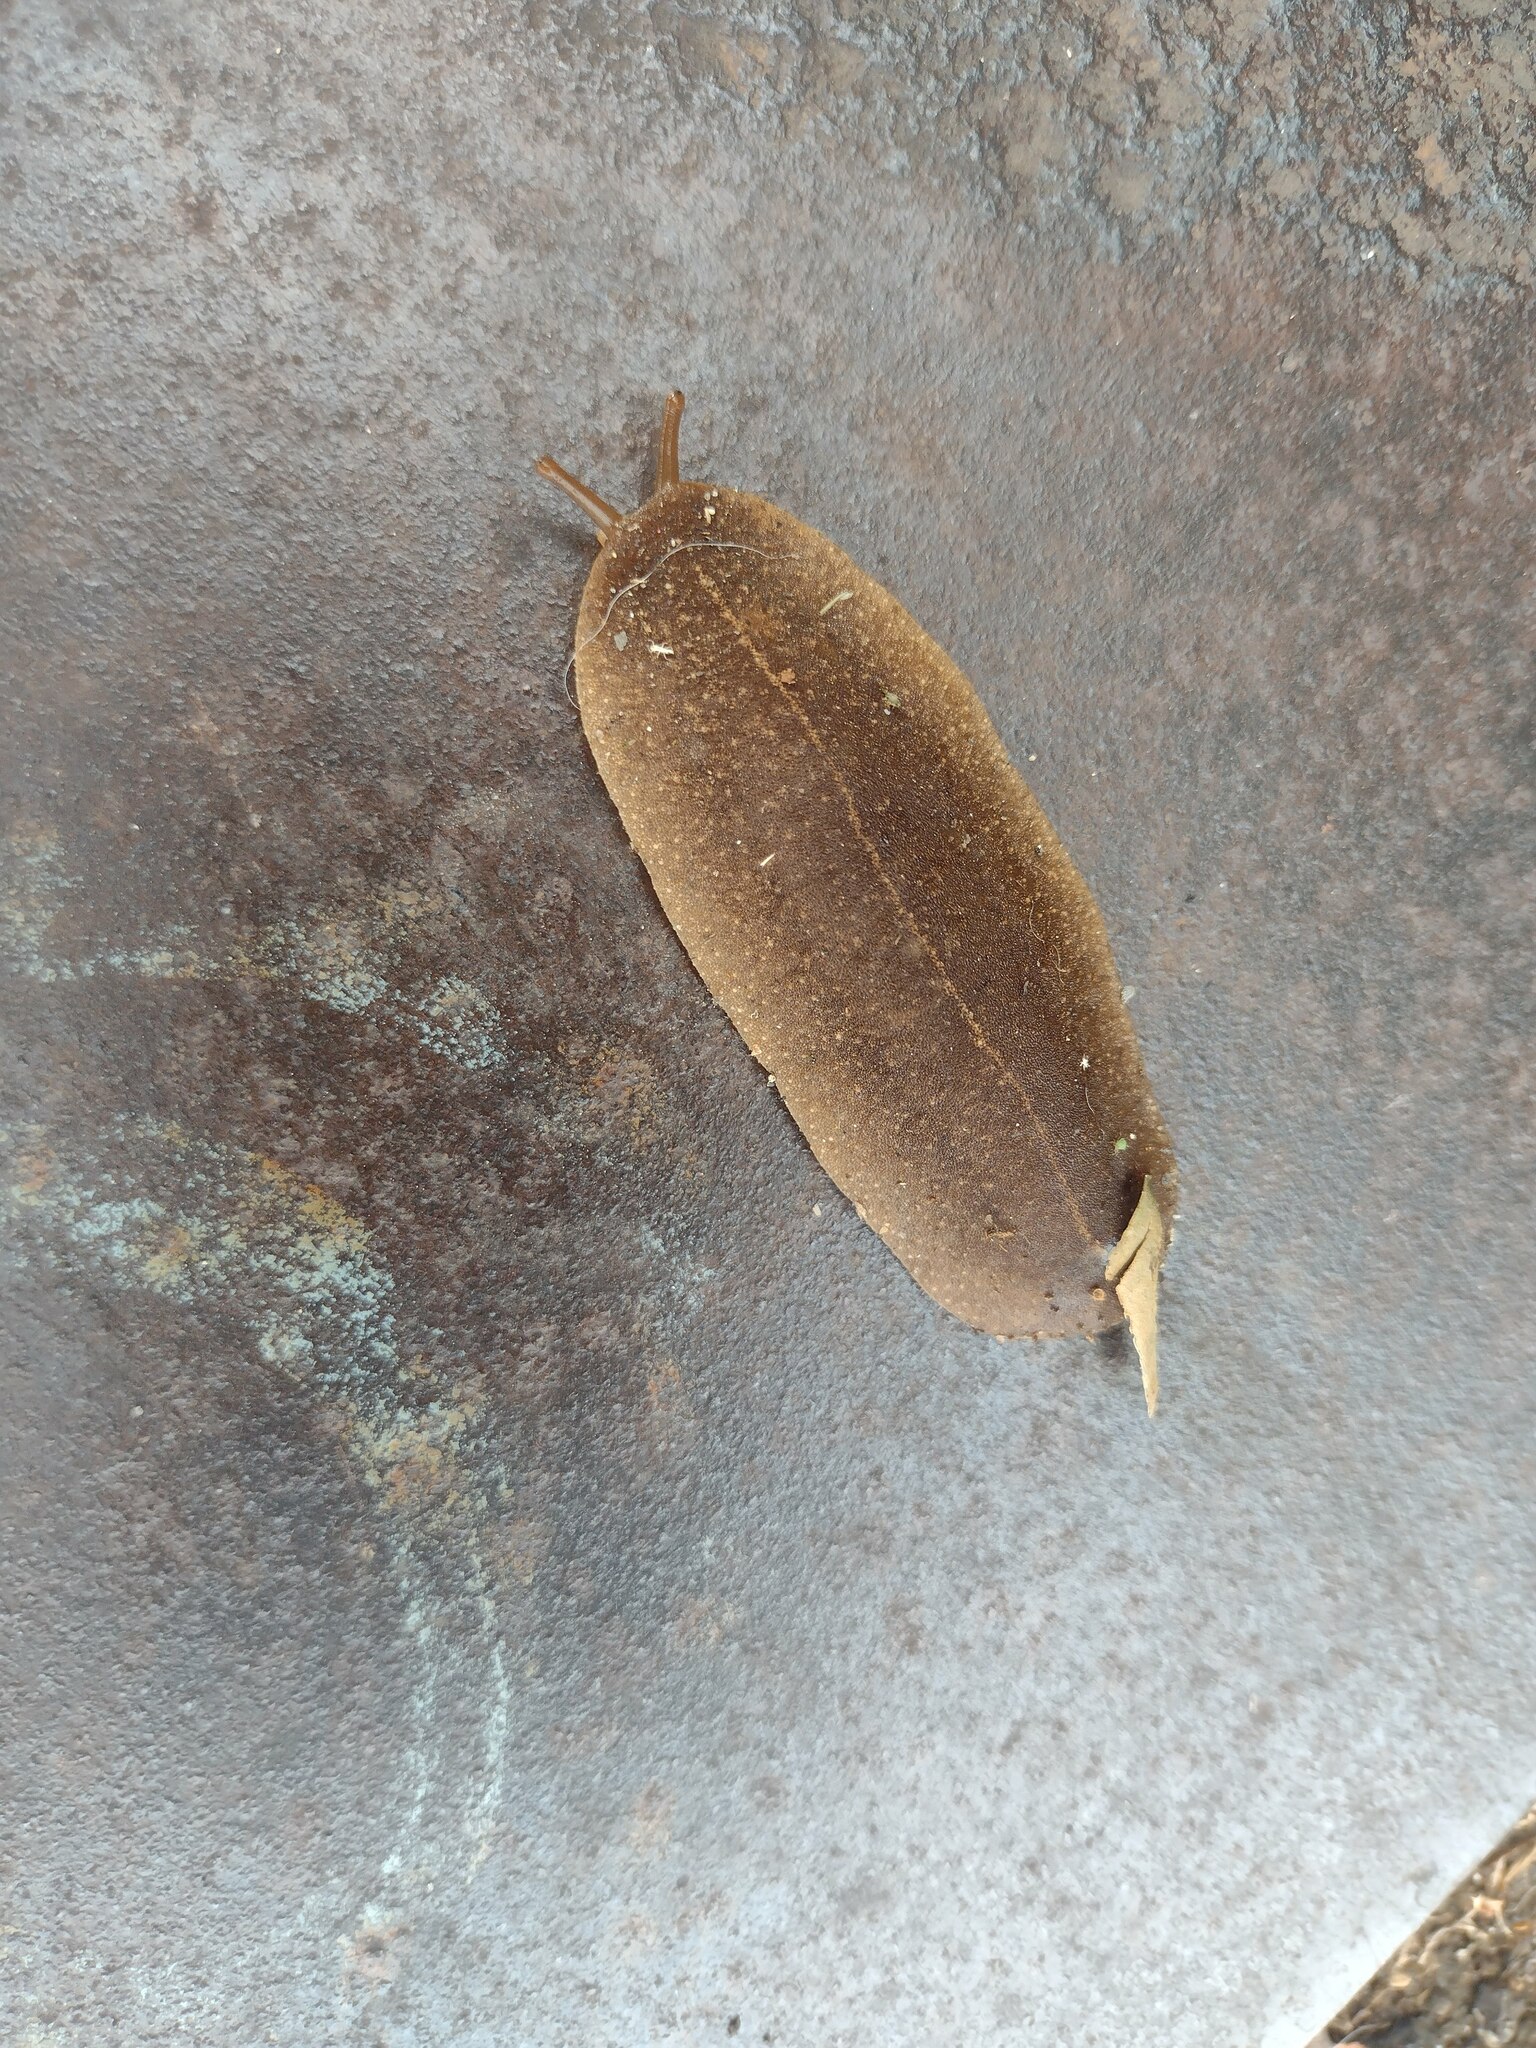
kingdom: Animalia
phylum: Mollusca
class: Gastropoda
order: Systellommatophora
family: Veronicellidae
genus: Veronicella
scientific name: Veronicella cubensis
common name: Two striped slug
